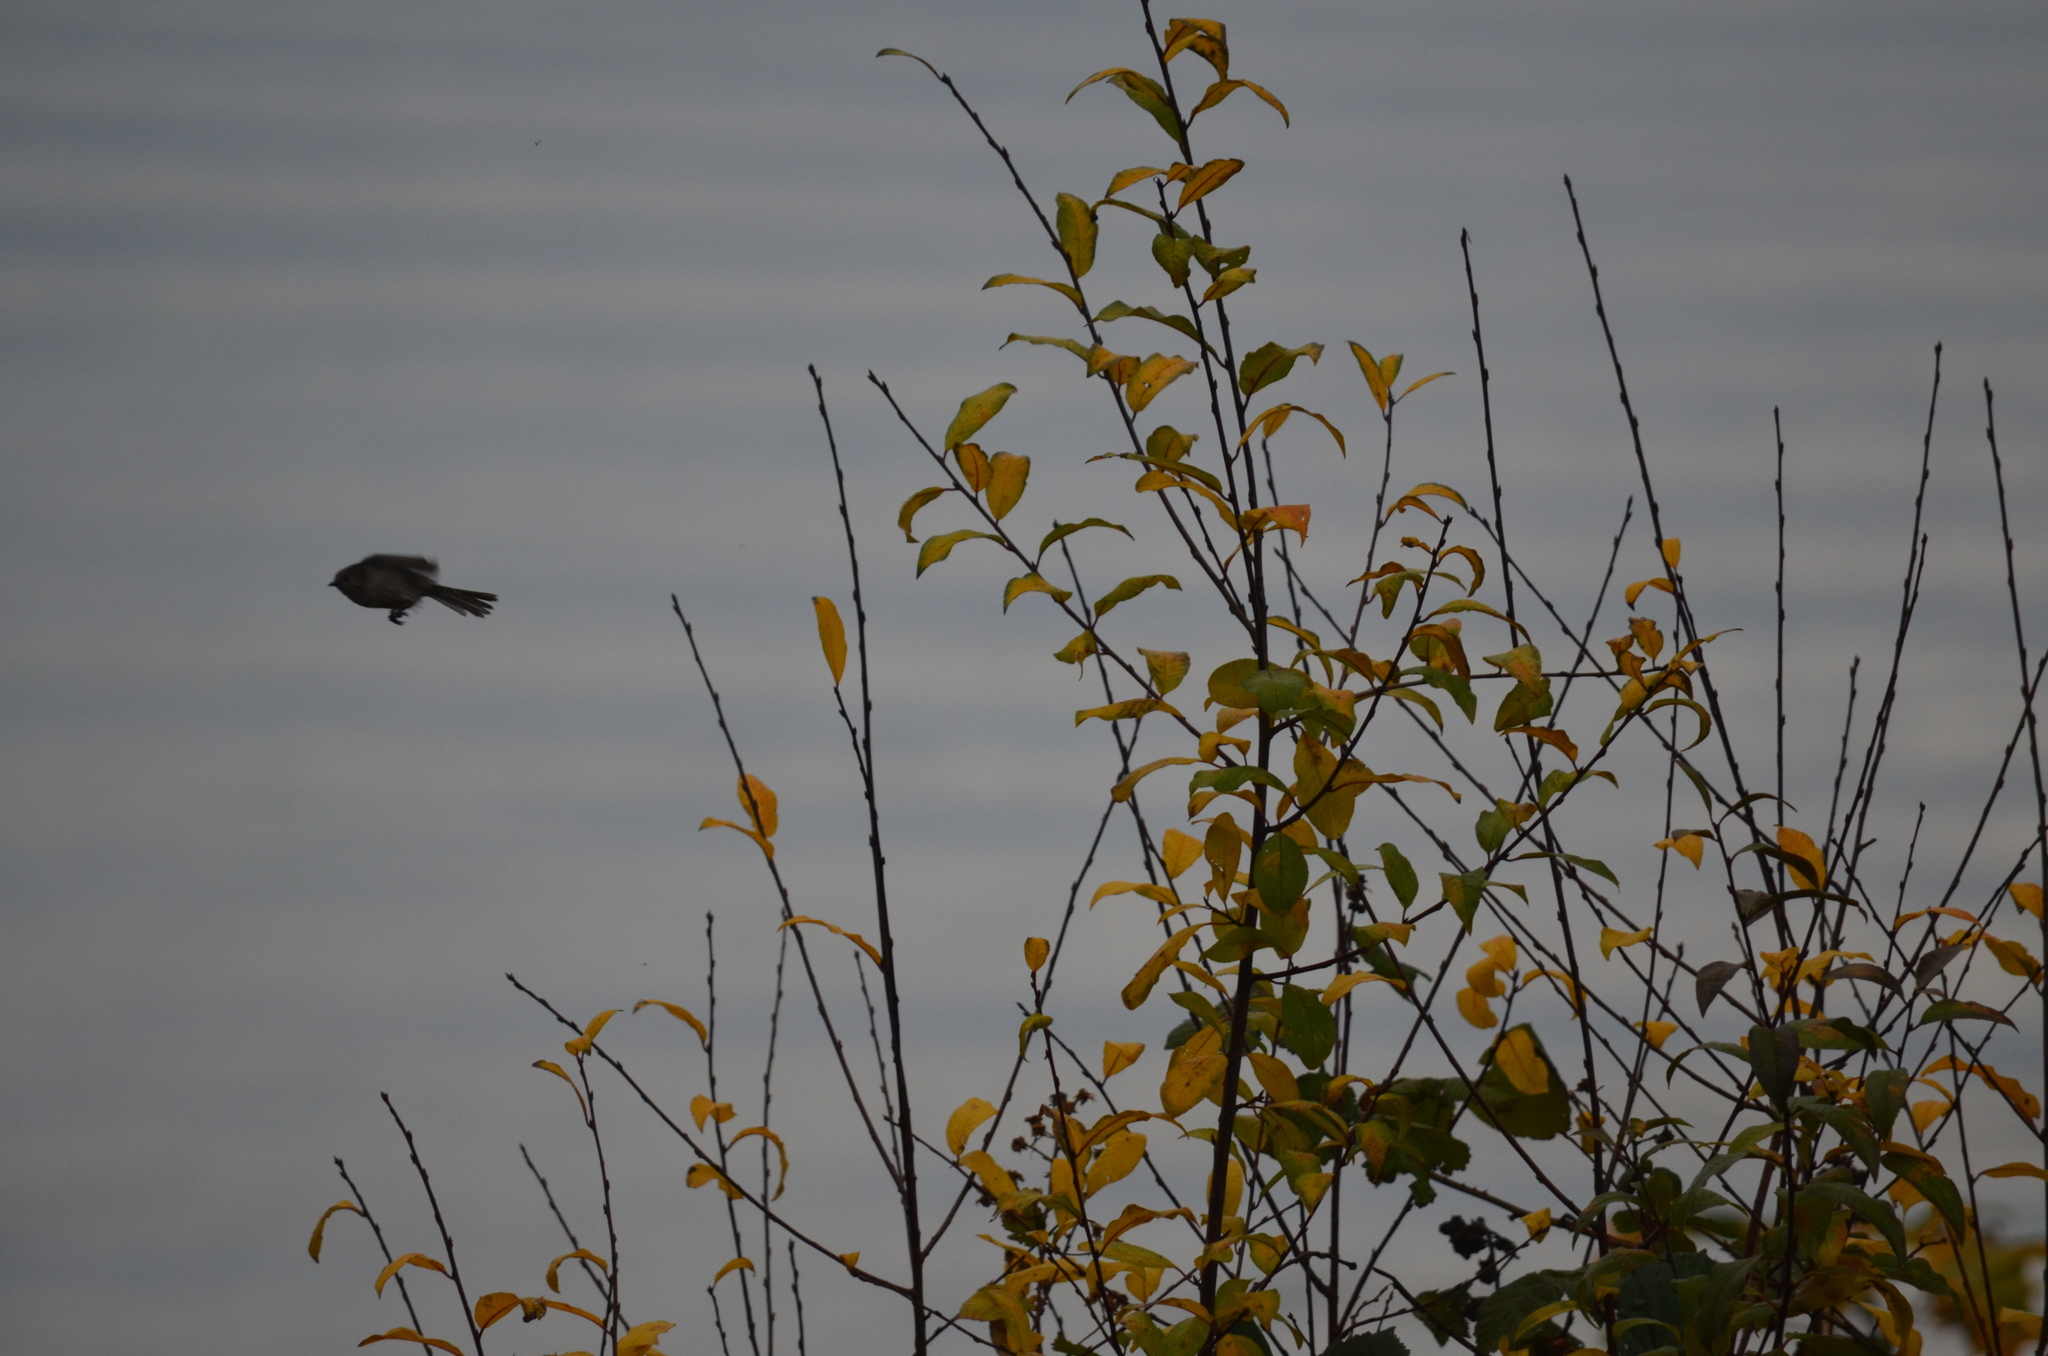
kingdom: Animalia
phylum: Chordata
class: Aves
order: Passeriformes
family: Aegithalidae
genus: Psaltriparus
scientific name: Psaltriparus minimus
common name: American bushtit
